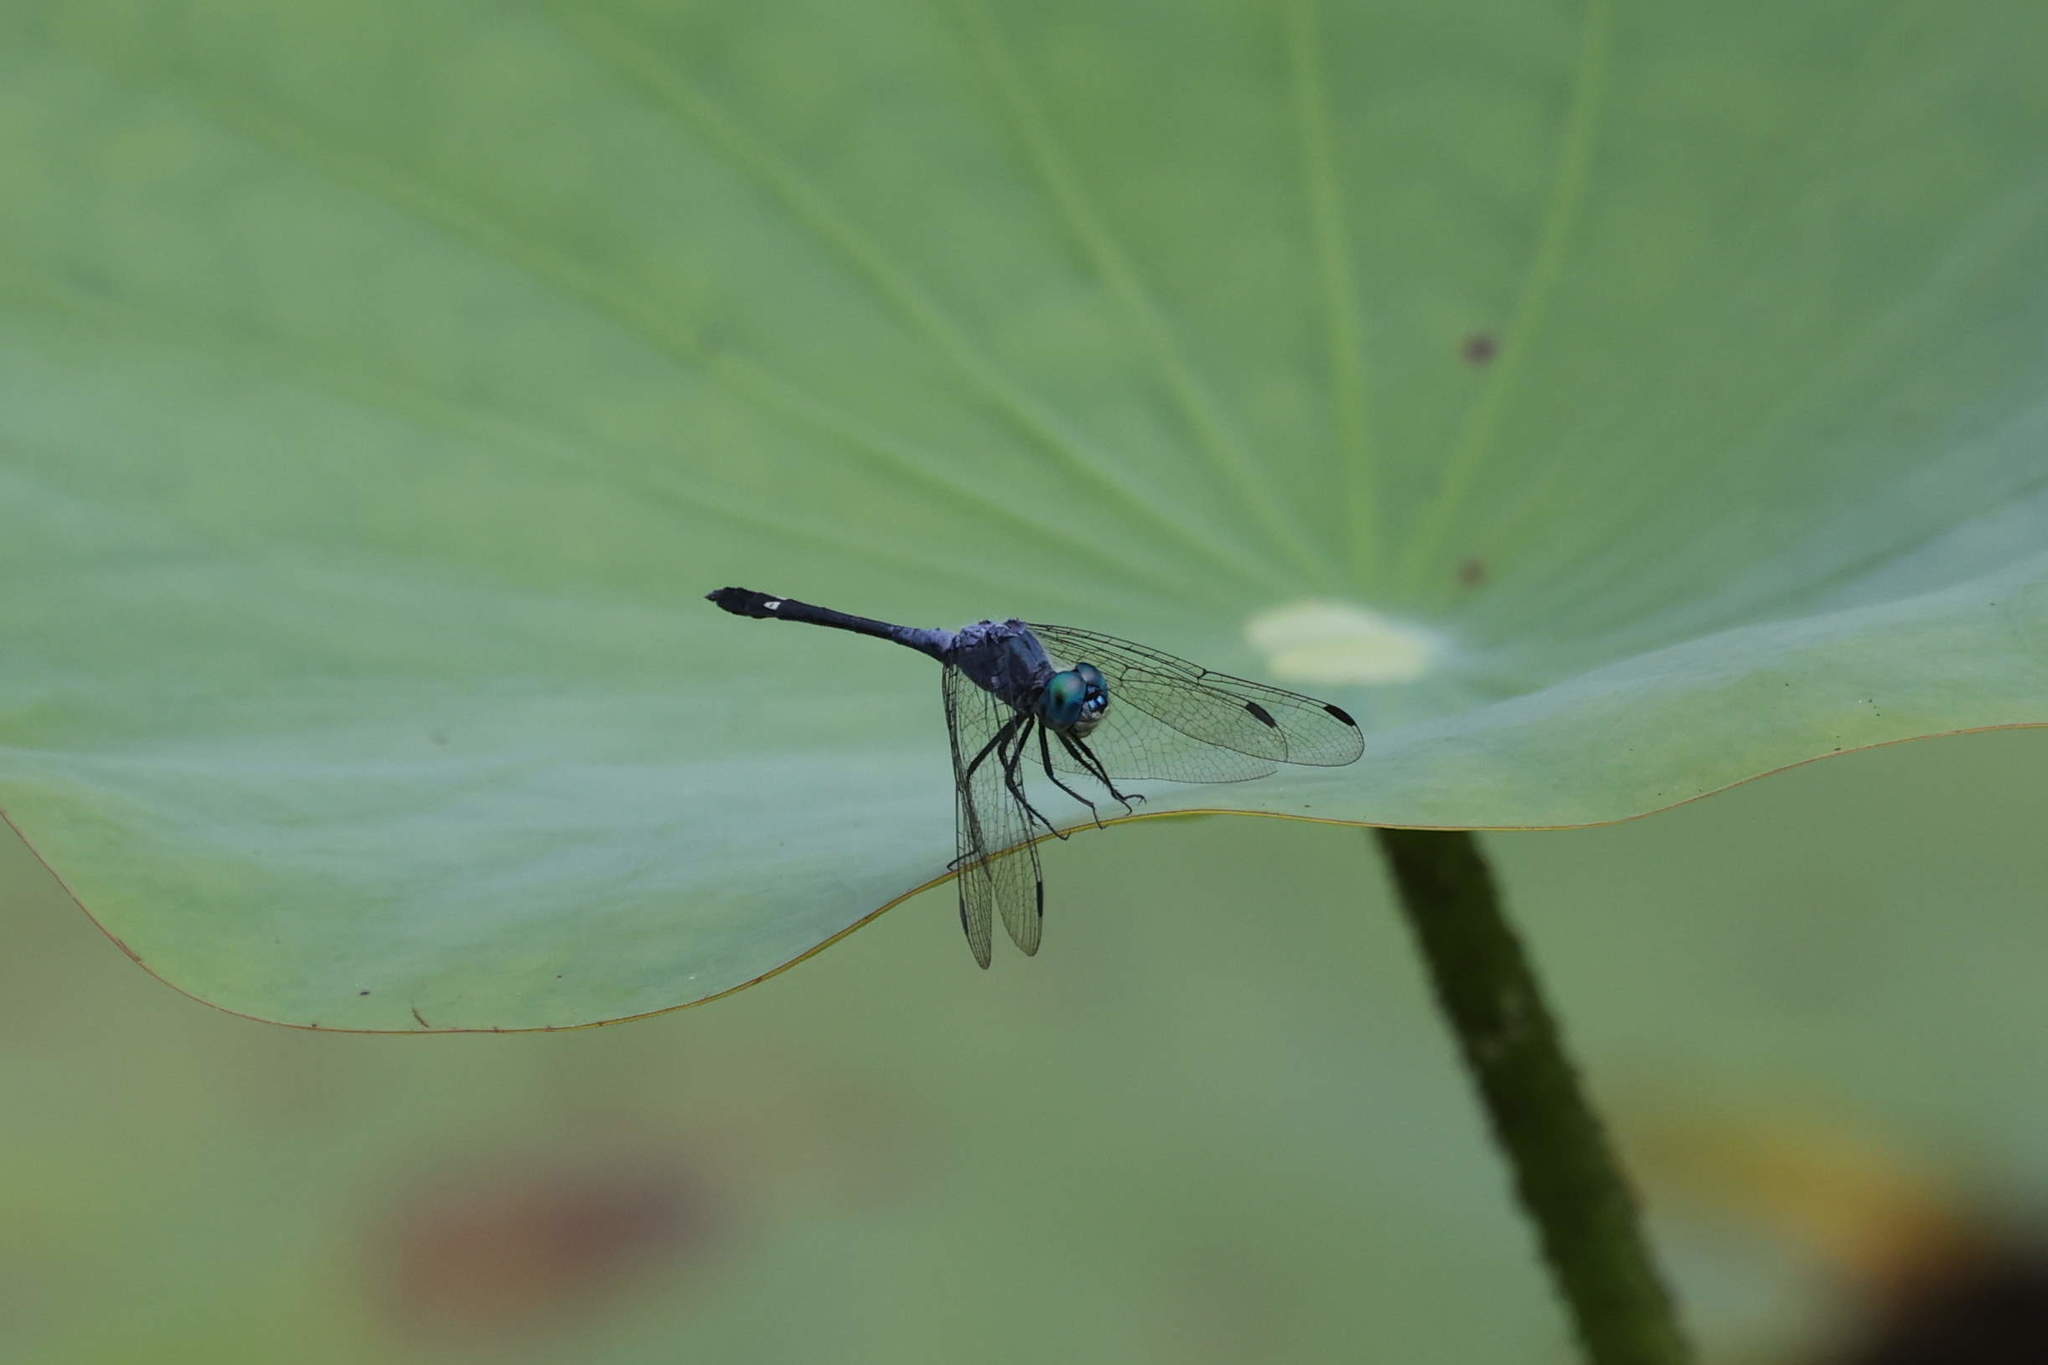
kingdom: Animalia
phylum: Arthropoda
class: Insecta
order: Odonata
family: Libellulidae
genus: Micrathyria
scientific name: Micrathyria aequalis
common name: Spot-tailed dasher
